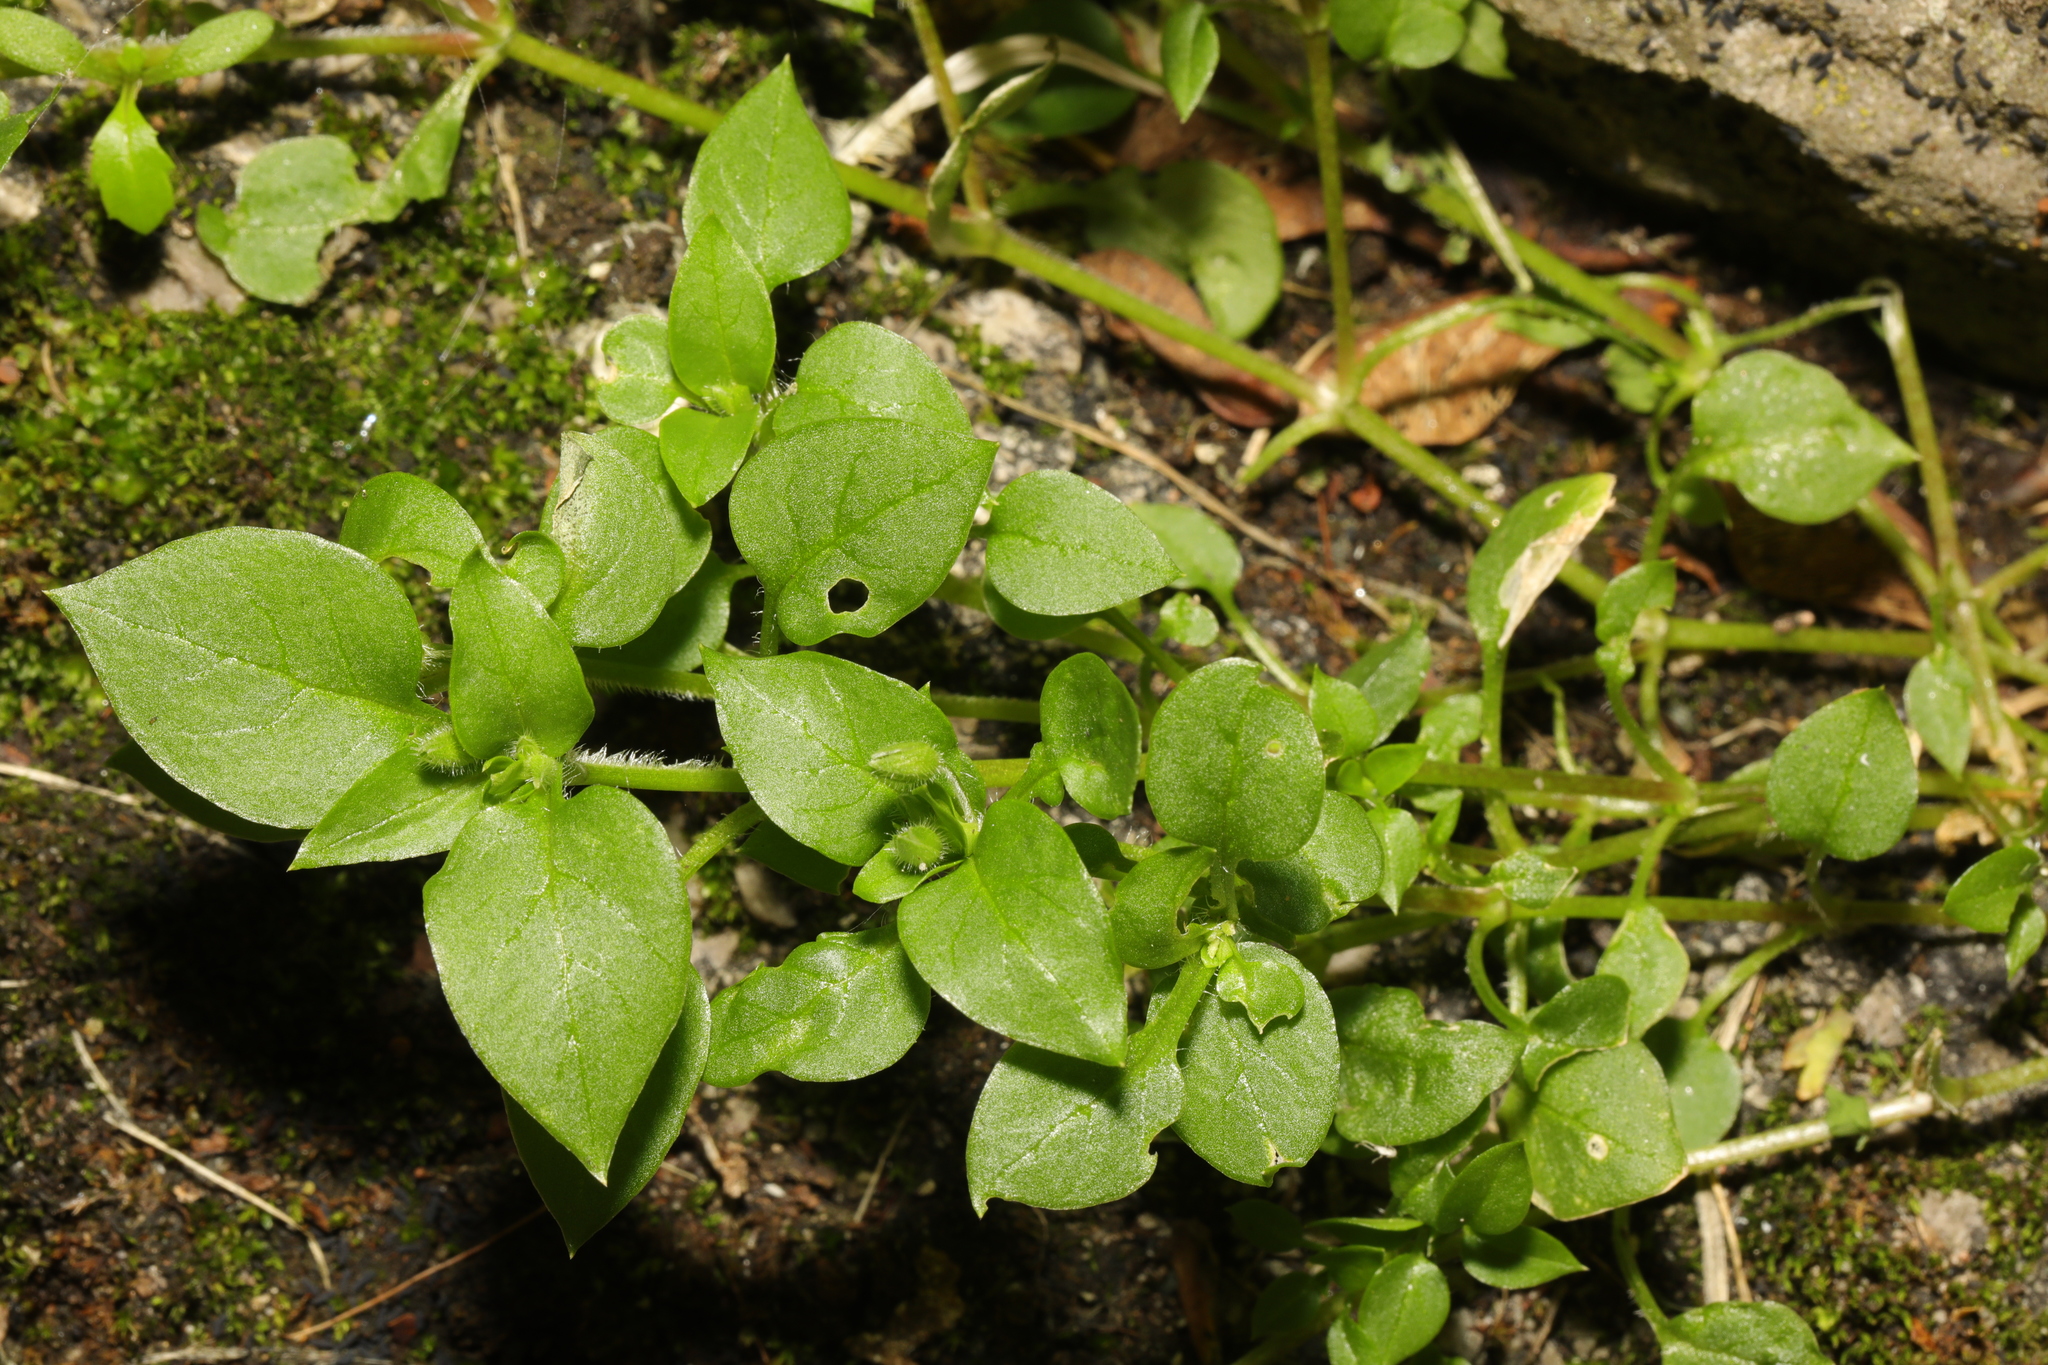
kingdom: Plantae
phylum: Tracheophyta
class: Magnoliopsida
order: Caryophyllales
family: Caryophyllaceae
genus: Stellaria
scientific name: Stellaria media
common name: Common chickweed
